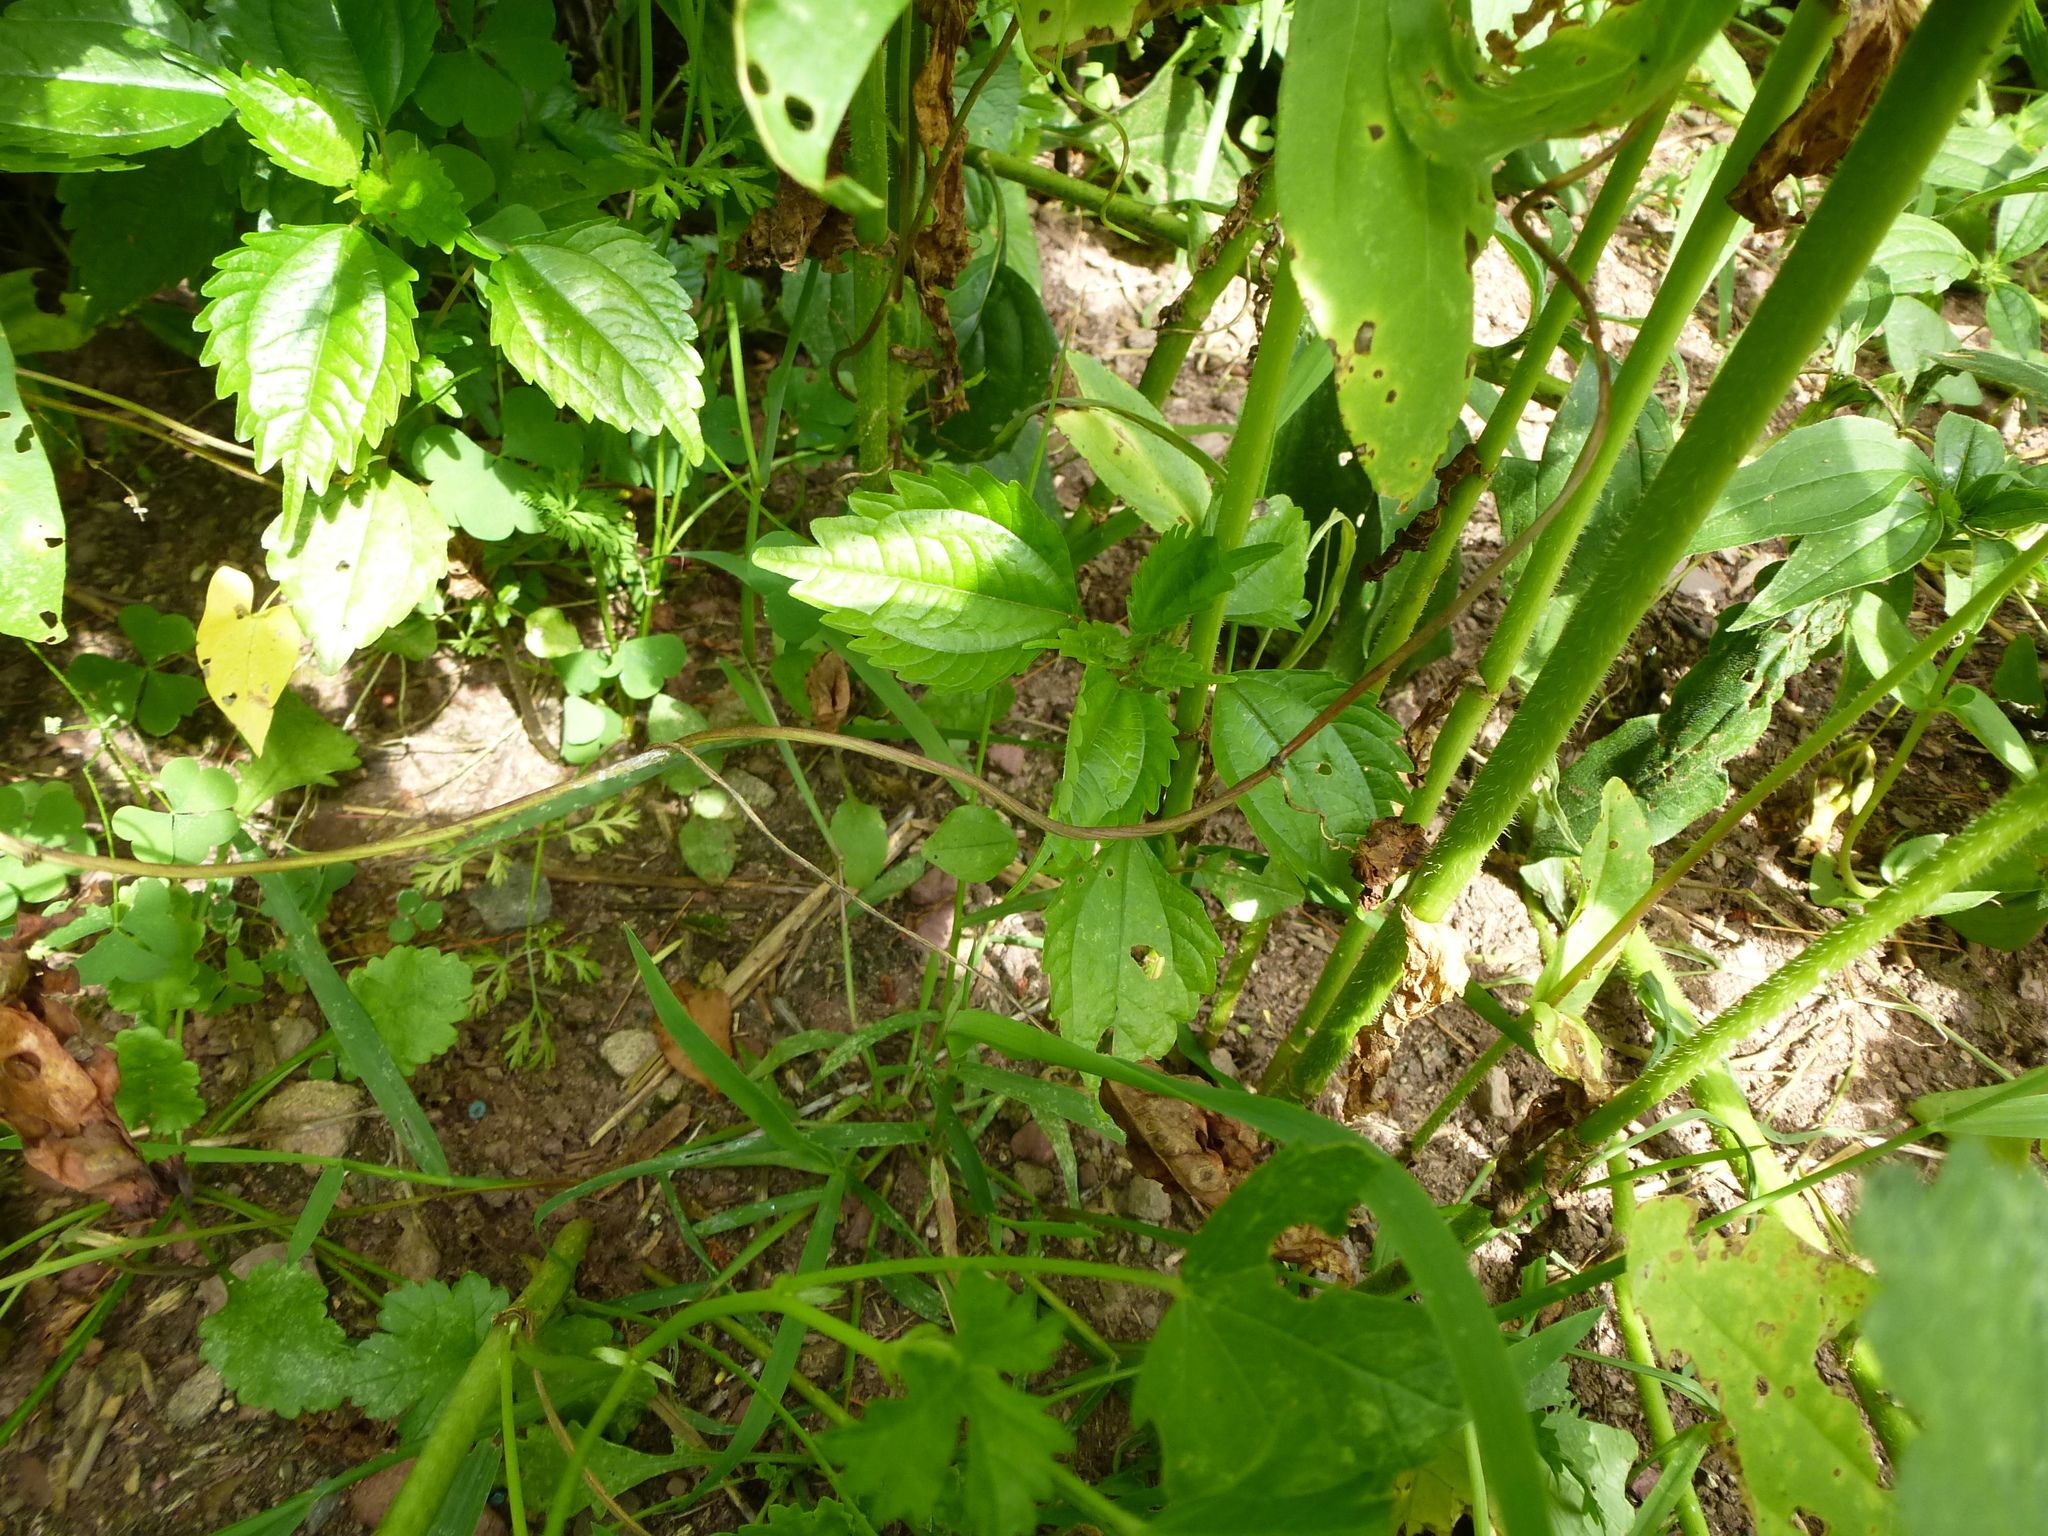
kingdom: Plantae
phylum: Tracheophyta
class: Magnoliopsida
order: Rosales
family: Urticaceae
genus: Pilea
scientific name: Pilea pumila
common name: Clearweed
